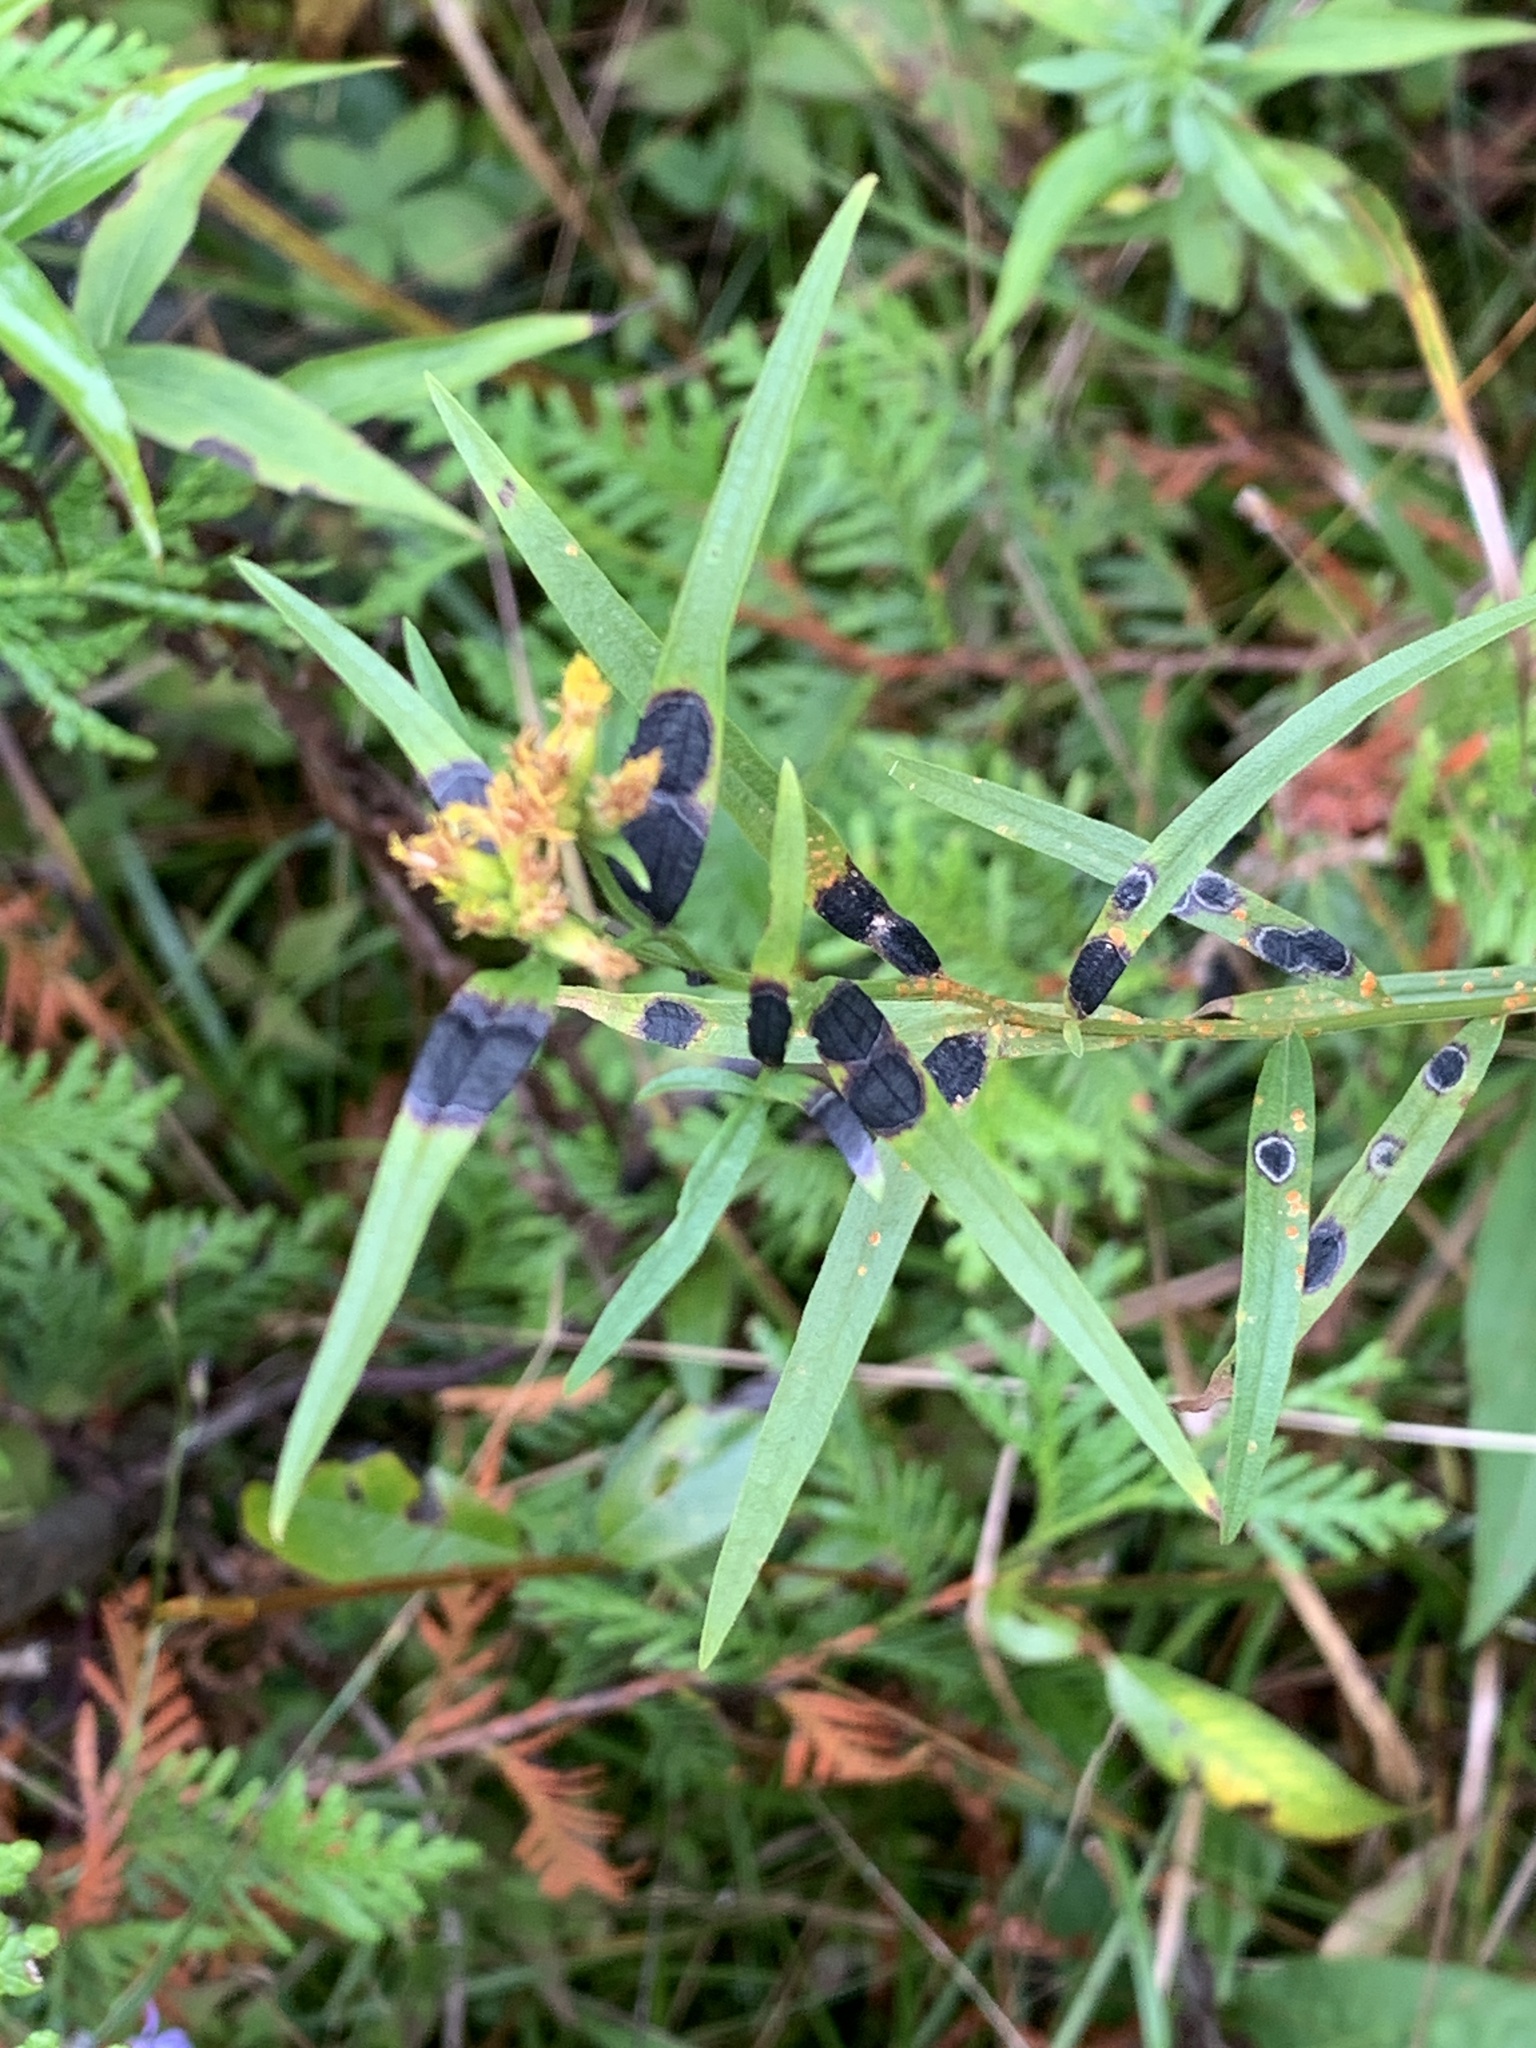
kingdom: Animalia
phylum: Arthropoda
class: Insecta
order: Diptera
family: Cecidomyiidae
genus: Asteromyia
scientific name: Asteromyia euthamiae
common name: Euthamia leaf gall midge
